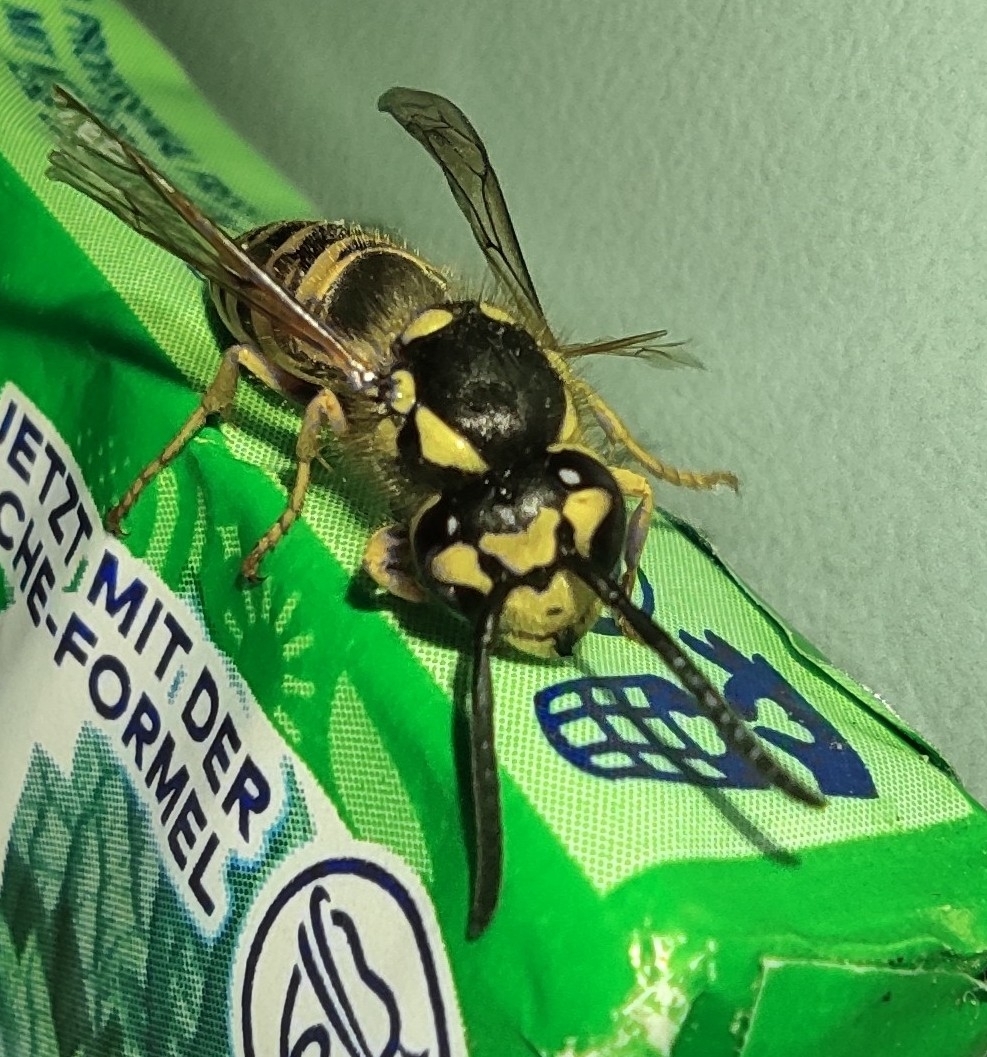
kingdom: Animalia
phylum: Arthropoda
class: Insecta
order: Hymenoptera
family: Vespidae
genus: Vespula
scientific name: Vespula germanica
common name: German wasp
